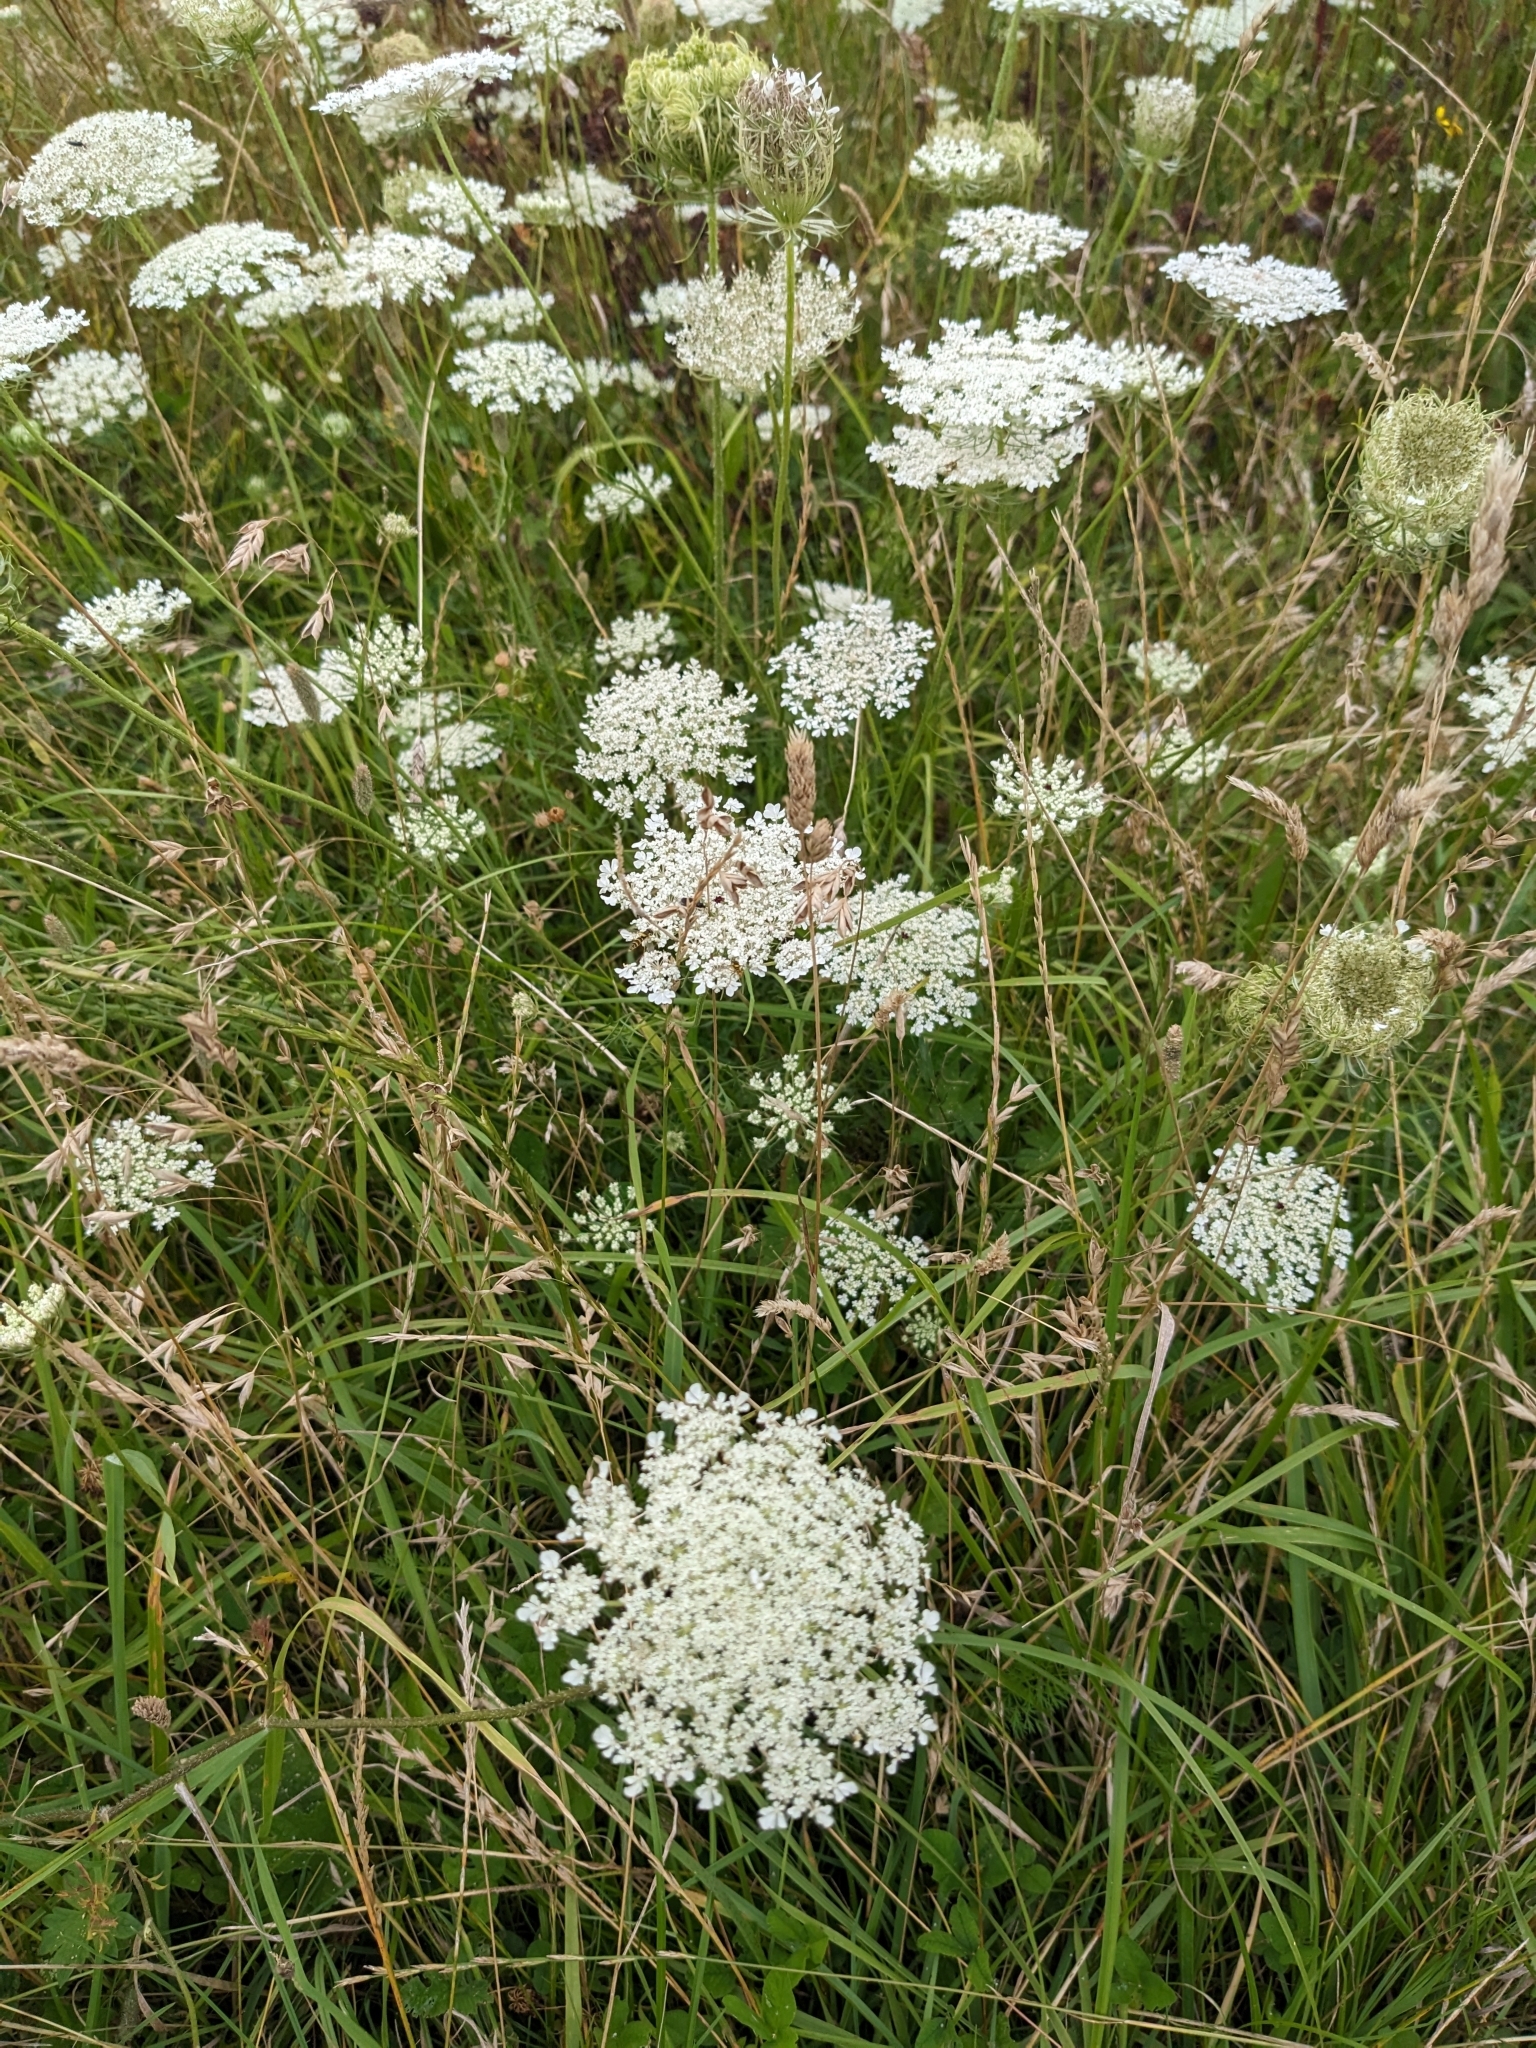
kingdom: Plantae
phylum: Tracheophyta
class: Magnoliopsida
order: Apiales
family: Apiaceae
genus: Daucus
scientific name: Daucus carota
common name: Wild carrot
